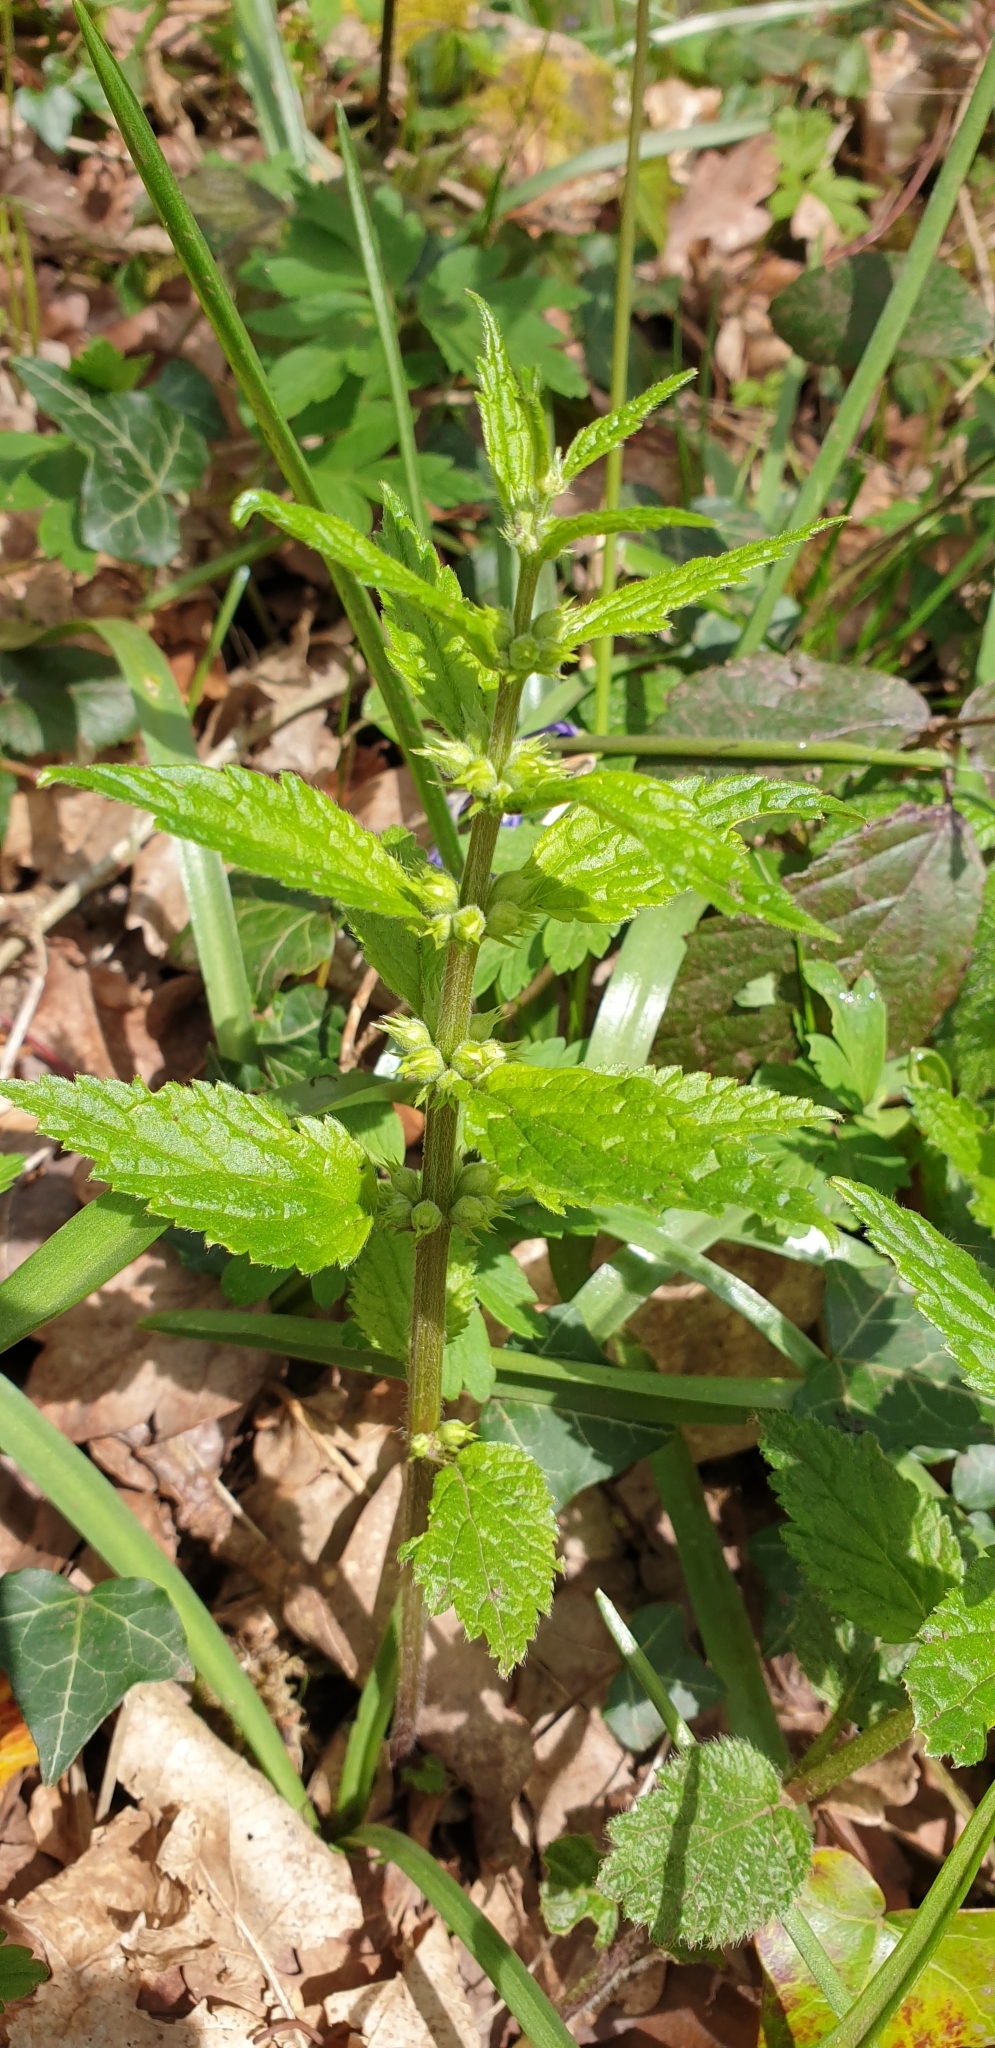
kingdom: Plantae
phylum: Tracheophyta
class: Magnoliopsida
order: Lamiales
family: Lamiaceae
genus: Lamium
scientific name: Lamium galeobdolon
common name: Yellow archangel
